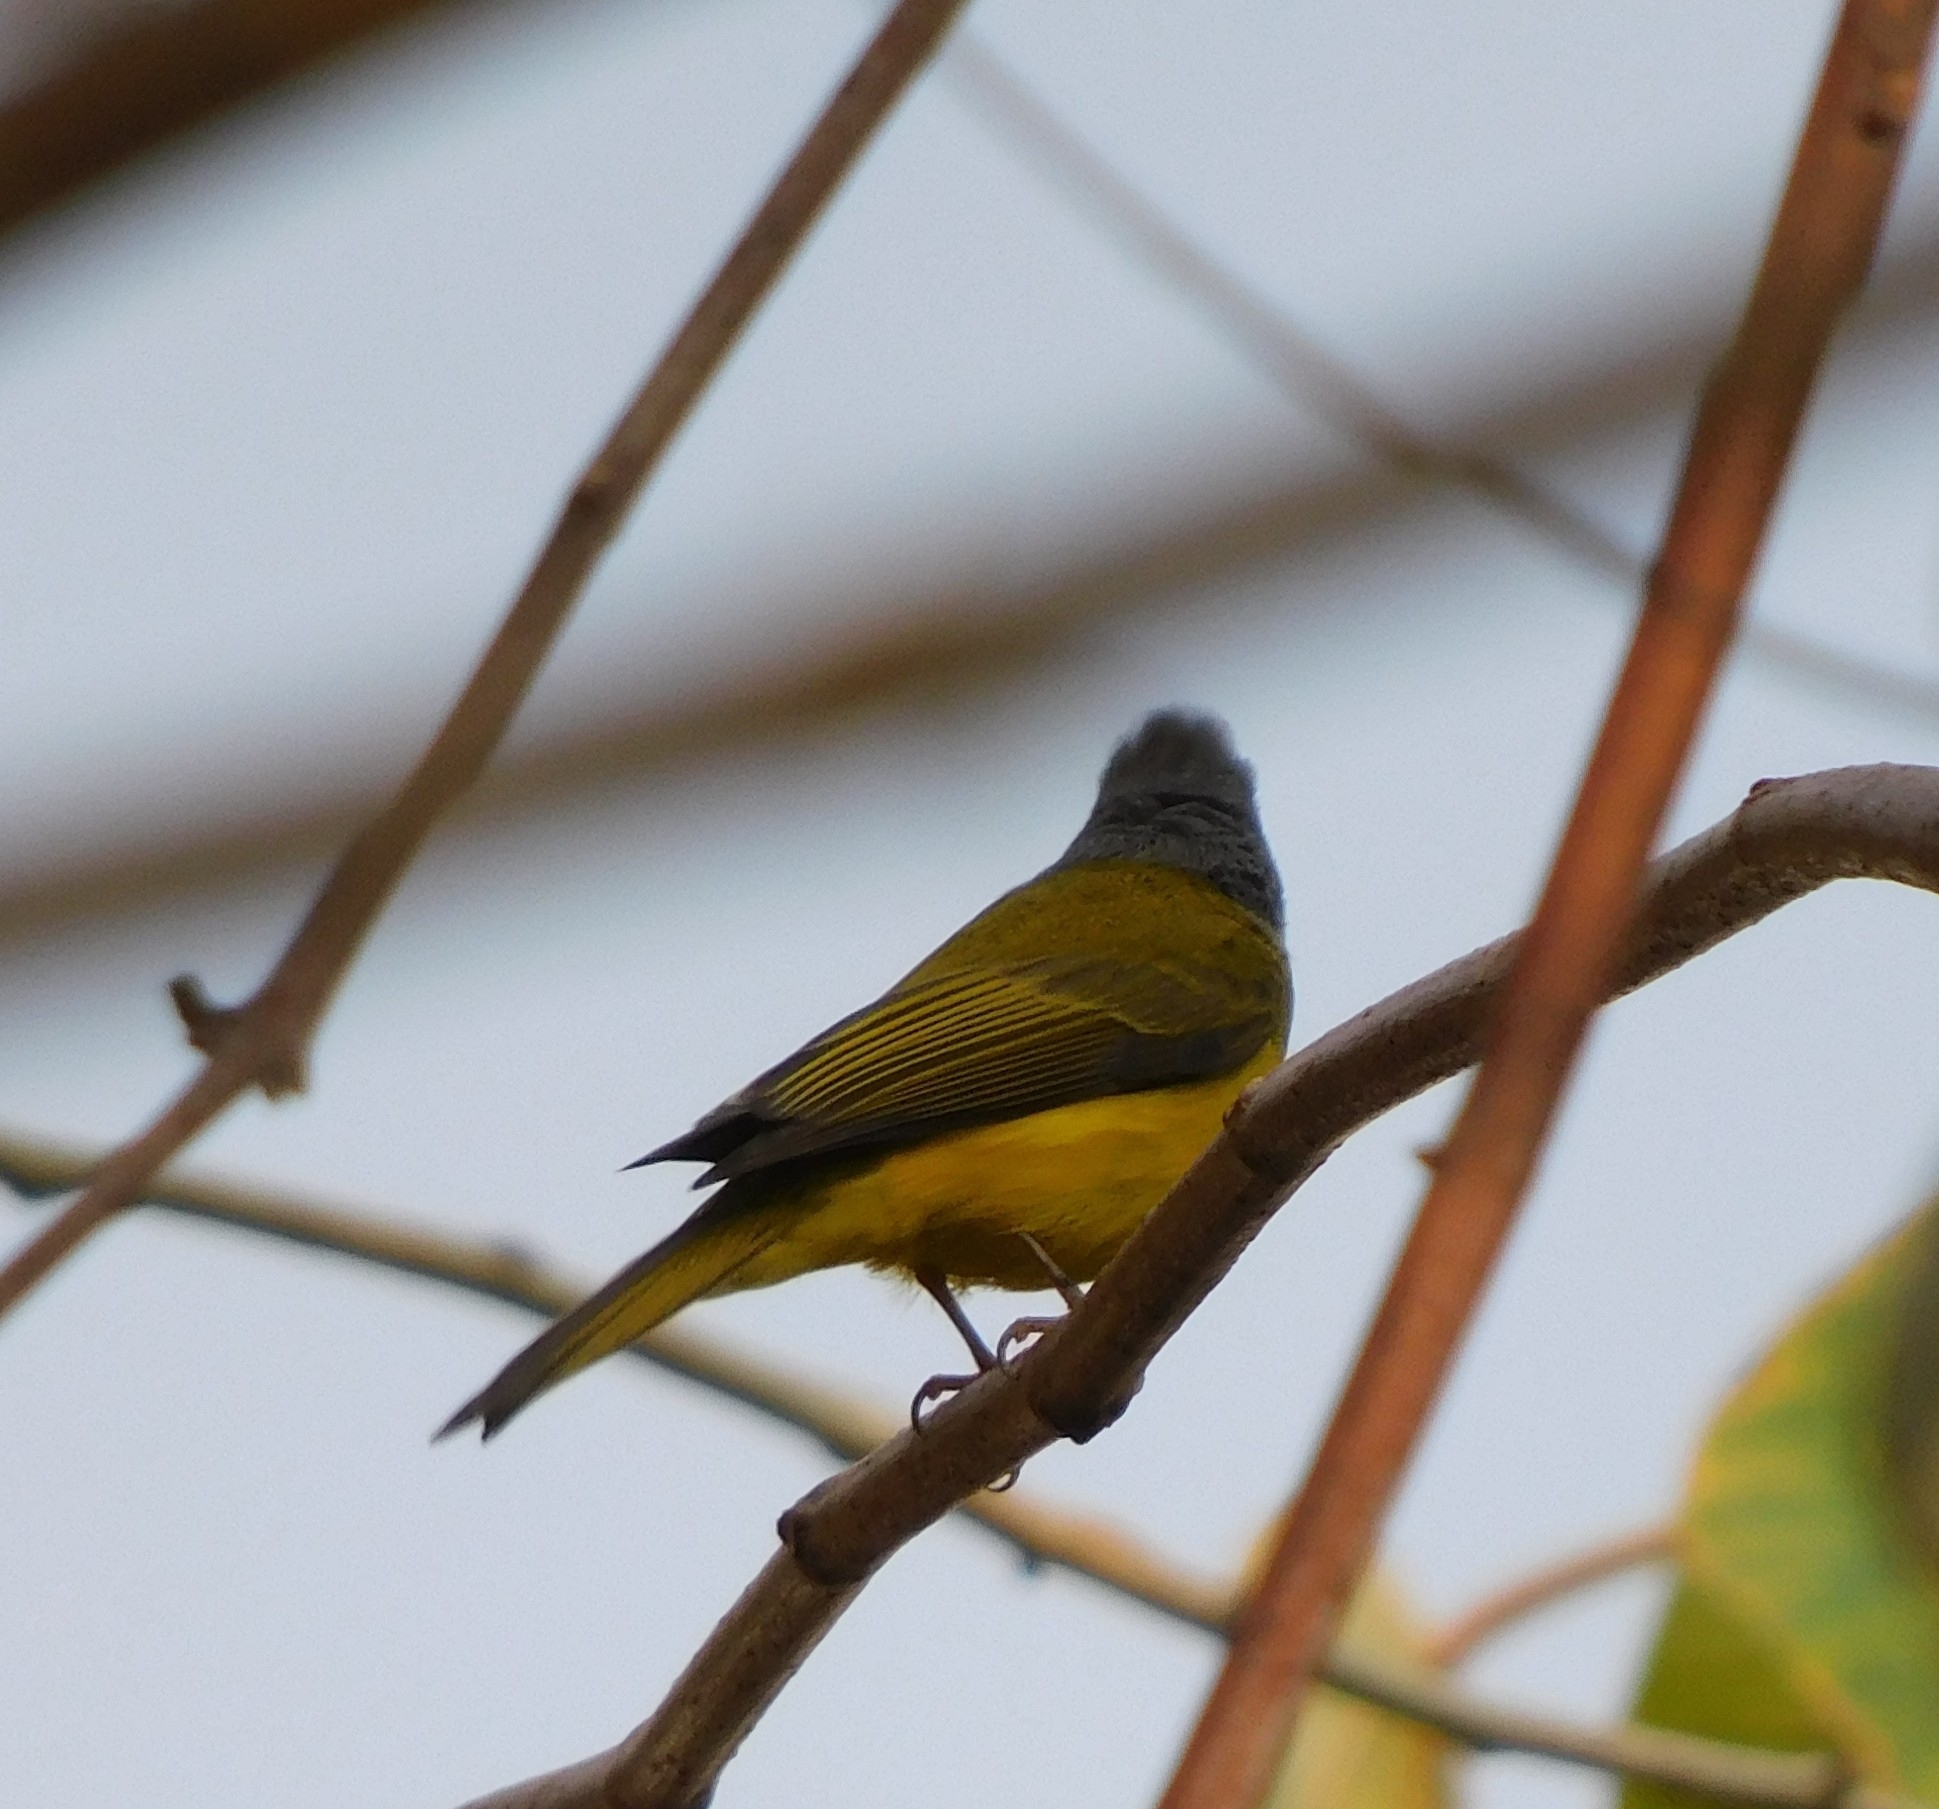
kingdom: Animalia
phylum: Chordata
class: Aves
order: Passeriformes
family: Stenostiridae
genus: Culicicapa
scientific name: Culicicapa ceylonensis
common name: Grey-headed canary-flycatcher
